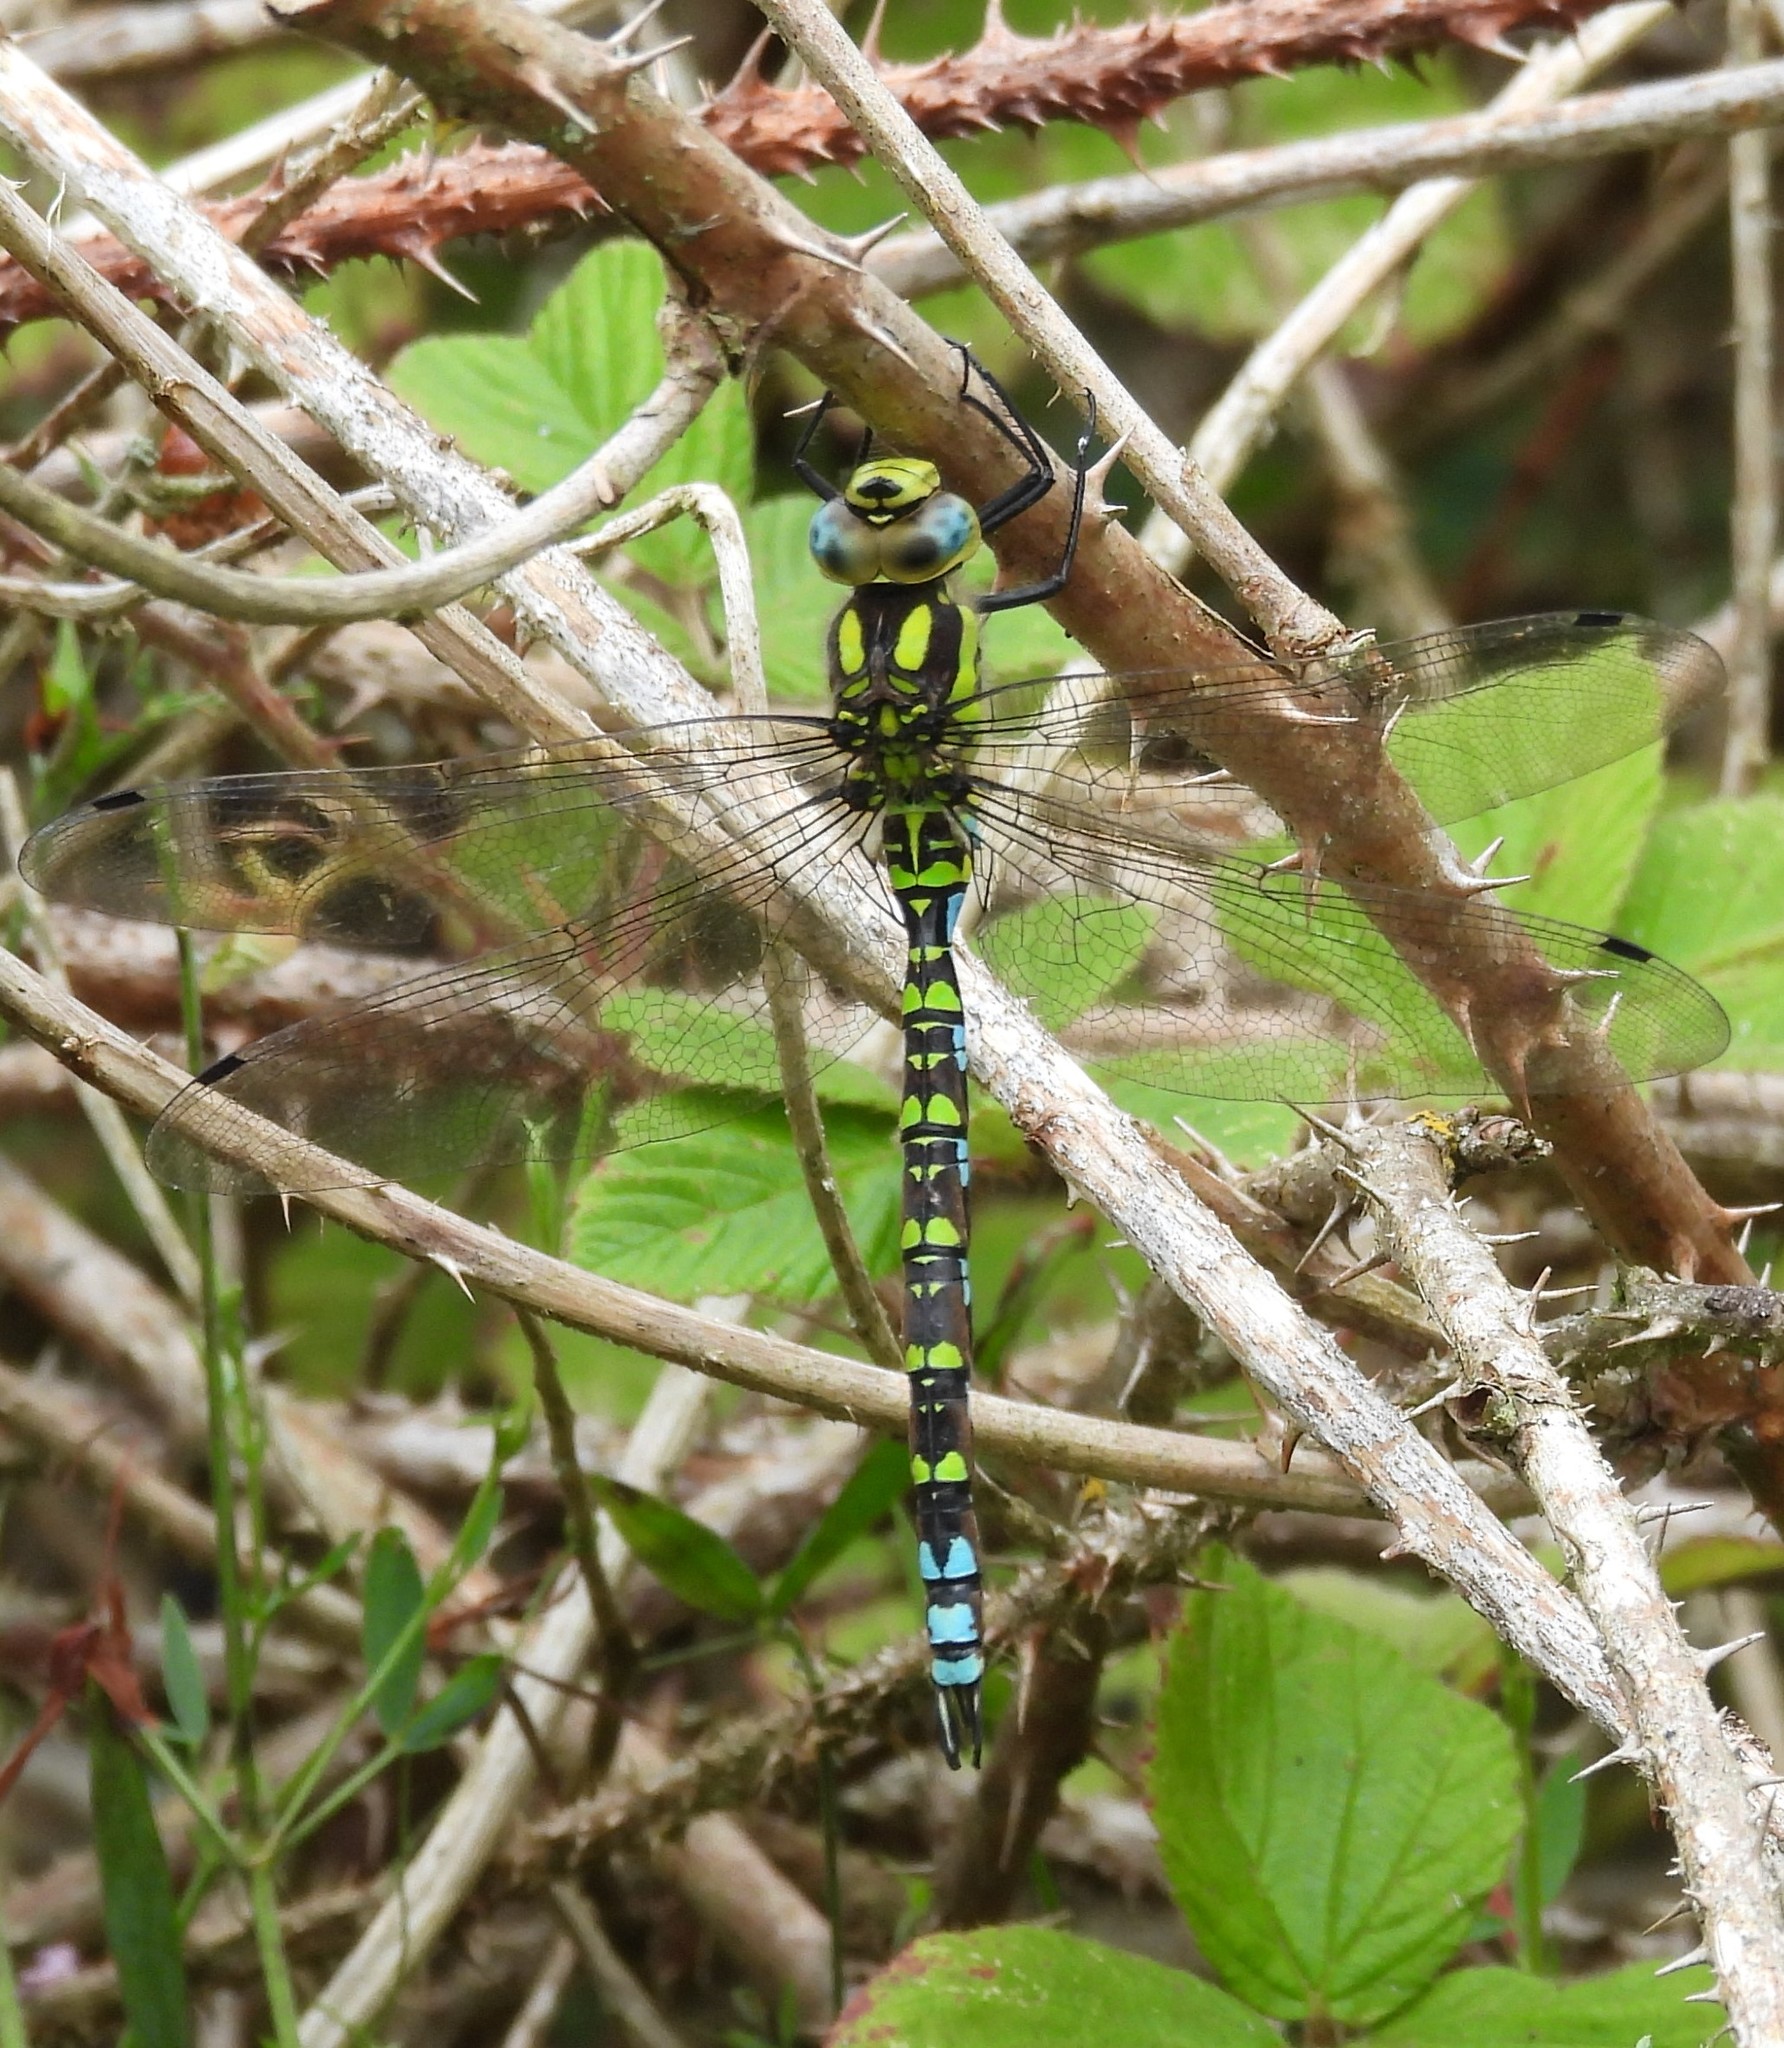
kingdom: Animalia
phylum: Arthropoda
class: Insecta
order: Odonata
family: Aeshnidae
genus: Aeshna
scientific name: Aeshna cyanea
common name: Southern hawker
